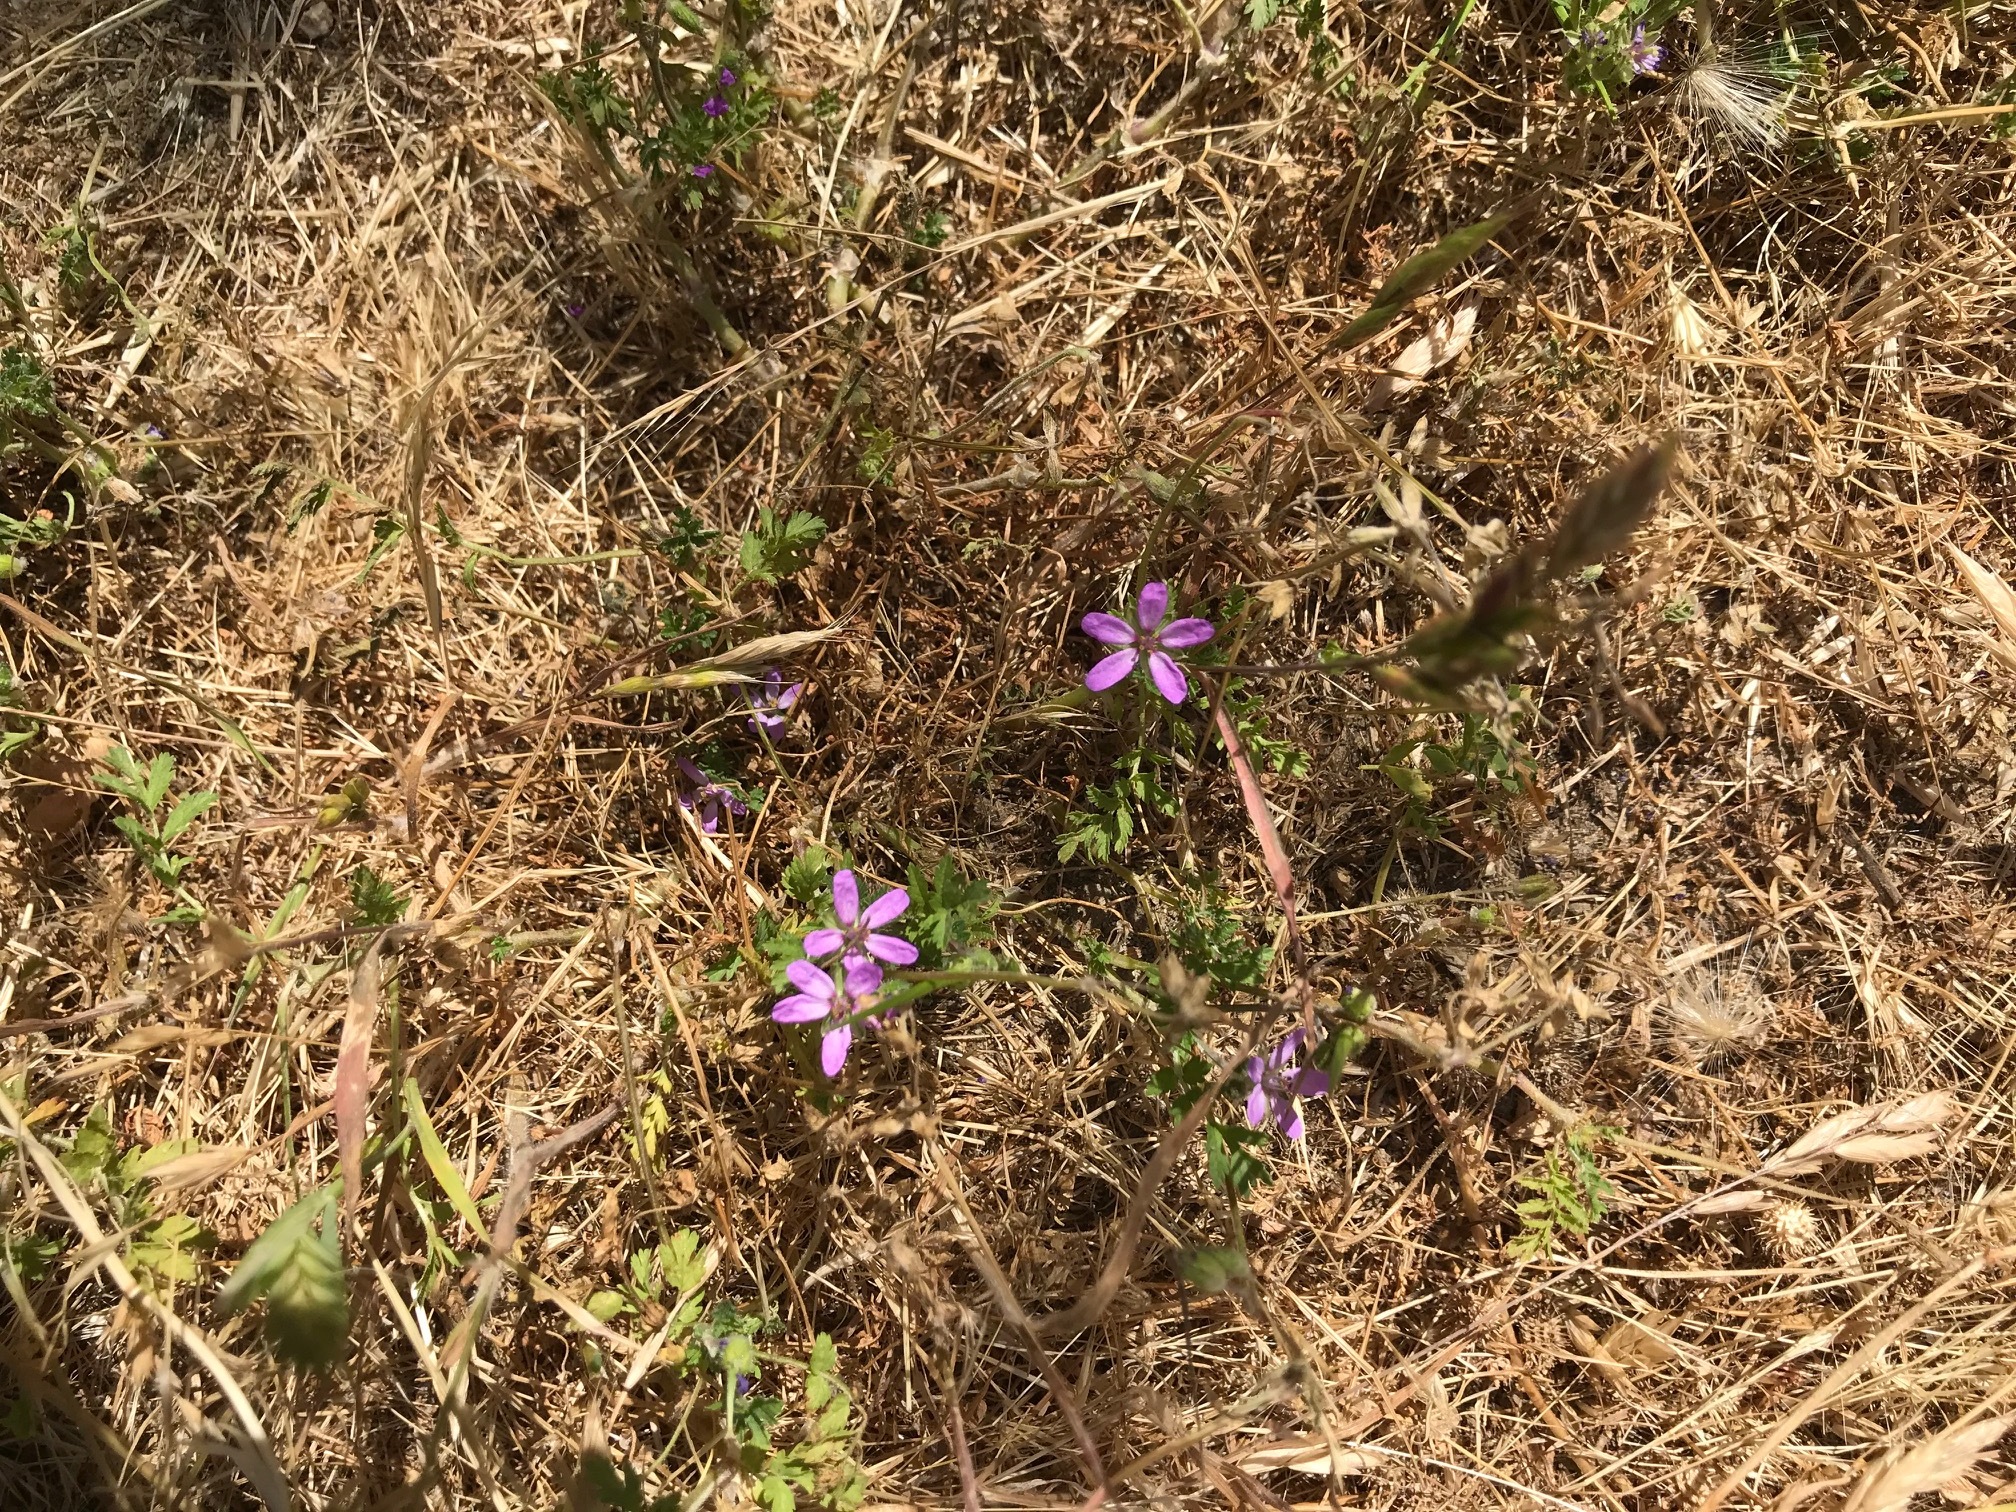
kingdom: Plantae
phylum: Tracheophyta
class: Magnoliopsida
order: Geraniales
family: Geraniaceae
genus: Erodium
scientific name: Erodium cicutarium
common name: Common stork's-bill
